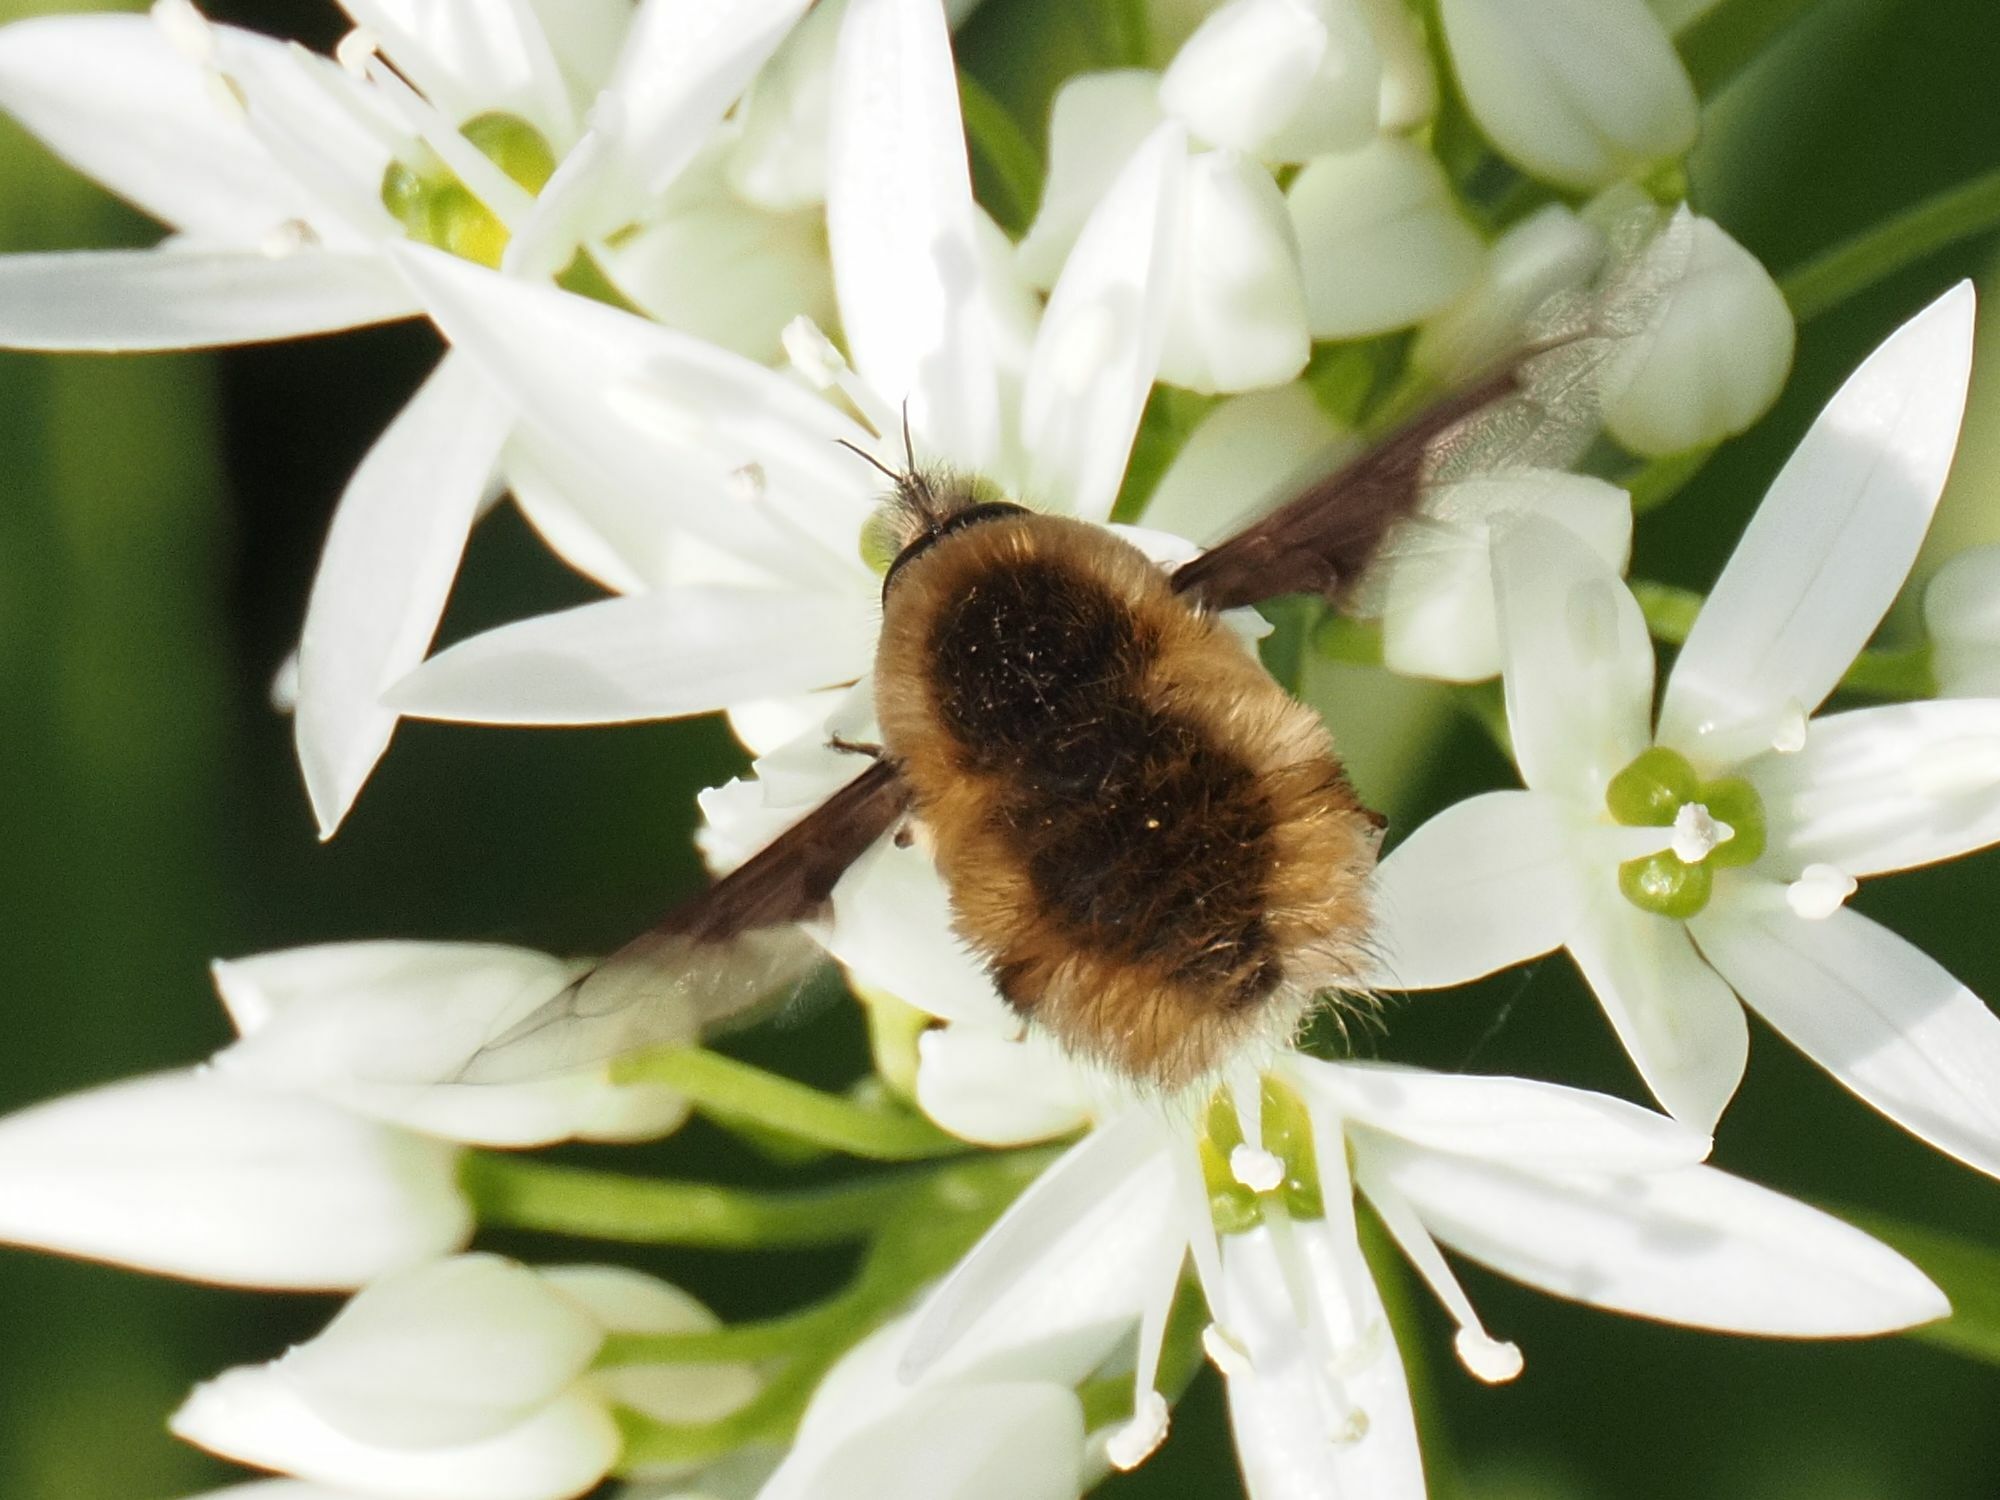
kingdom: Animalia
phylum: Arthropoda
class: Insecta
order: Diptera
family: Bombyliidae
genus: Bombylius
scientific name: Bombylius major
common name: Bee fly
